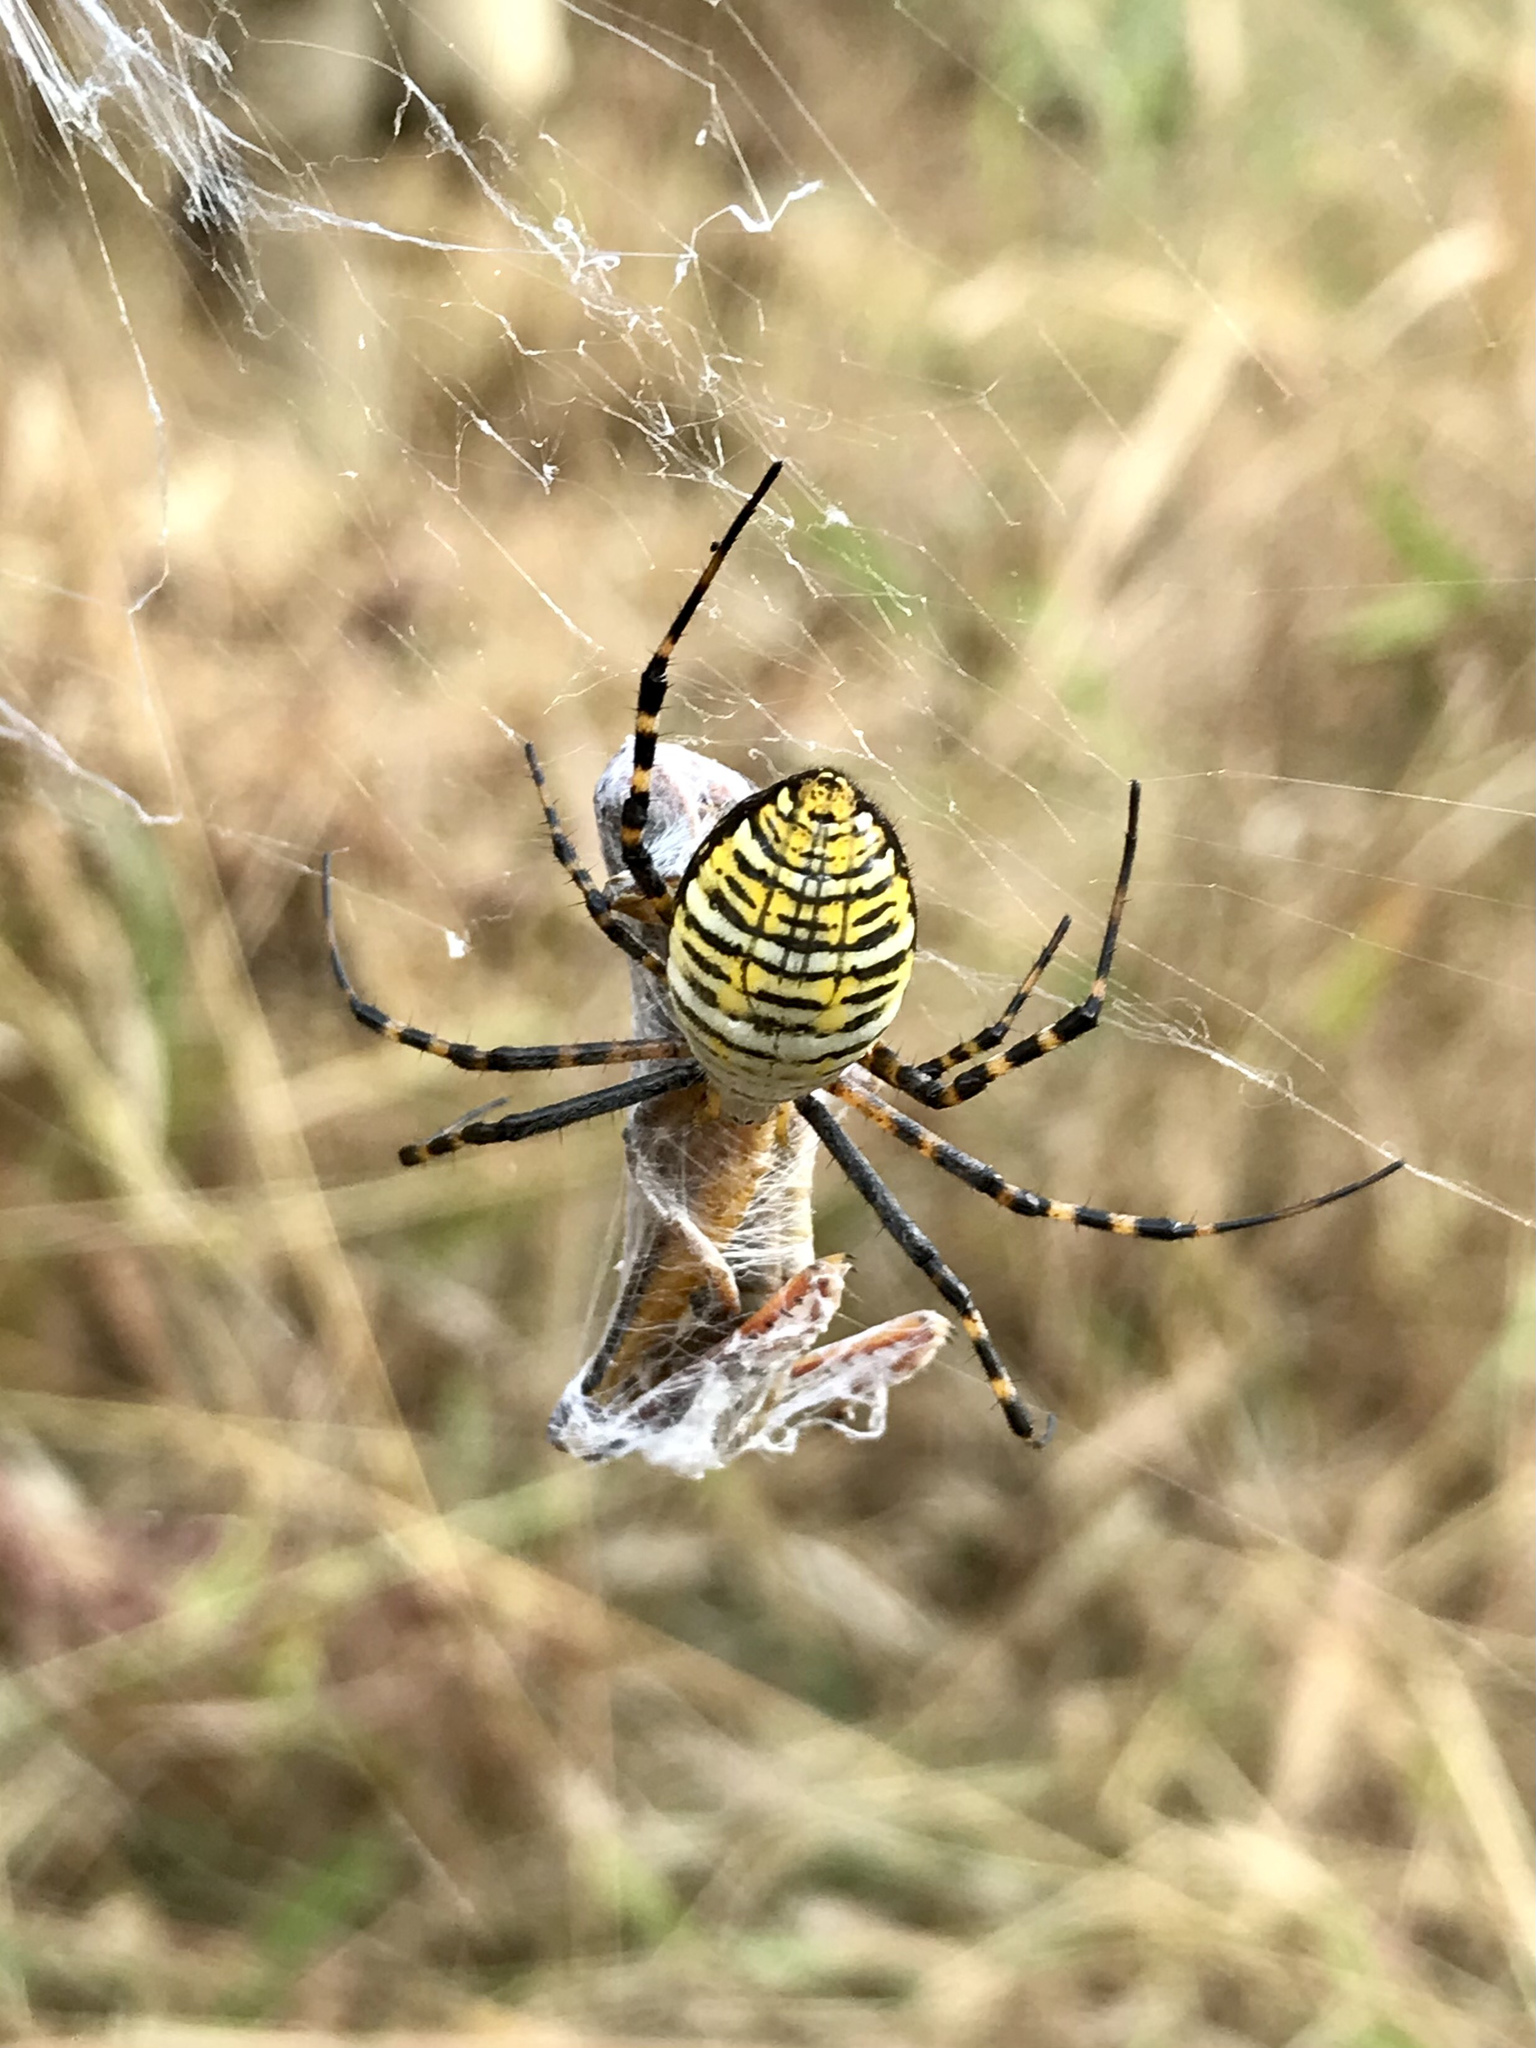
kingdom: Animalia
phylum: Arthropoda
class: Arachnida
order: Araneae
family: Araneidae
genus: Argiope
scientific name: Argiope trifasciata
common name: Banded garden spider
